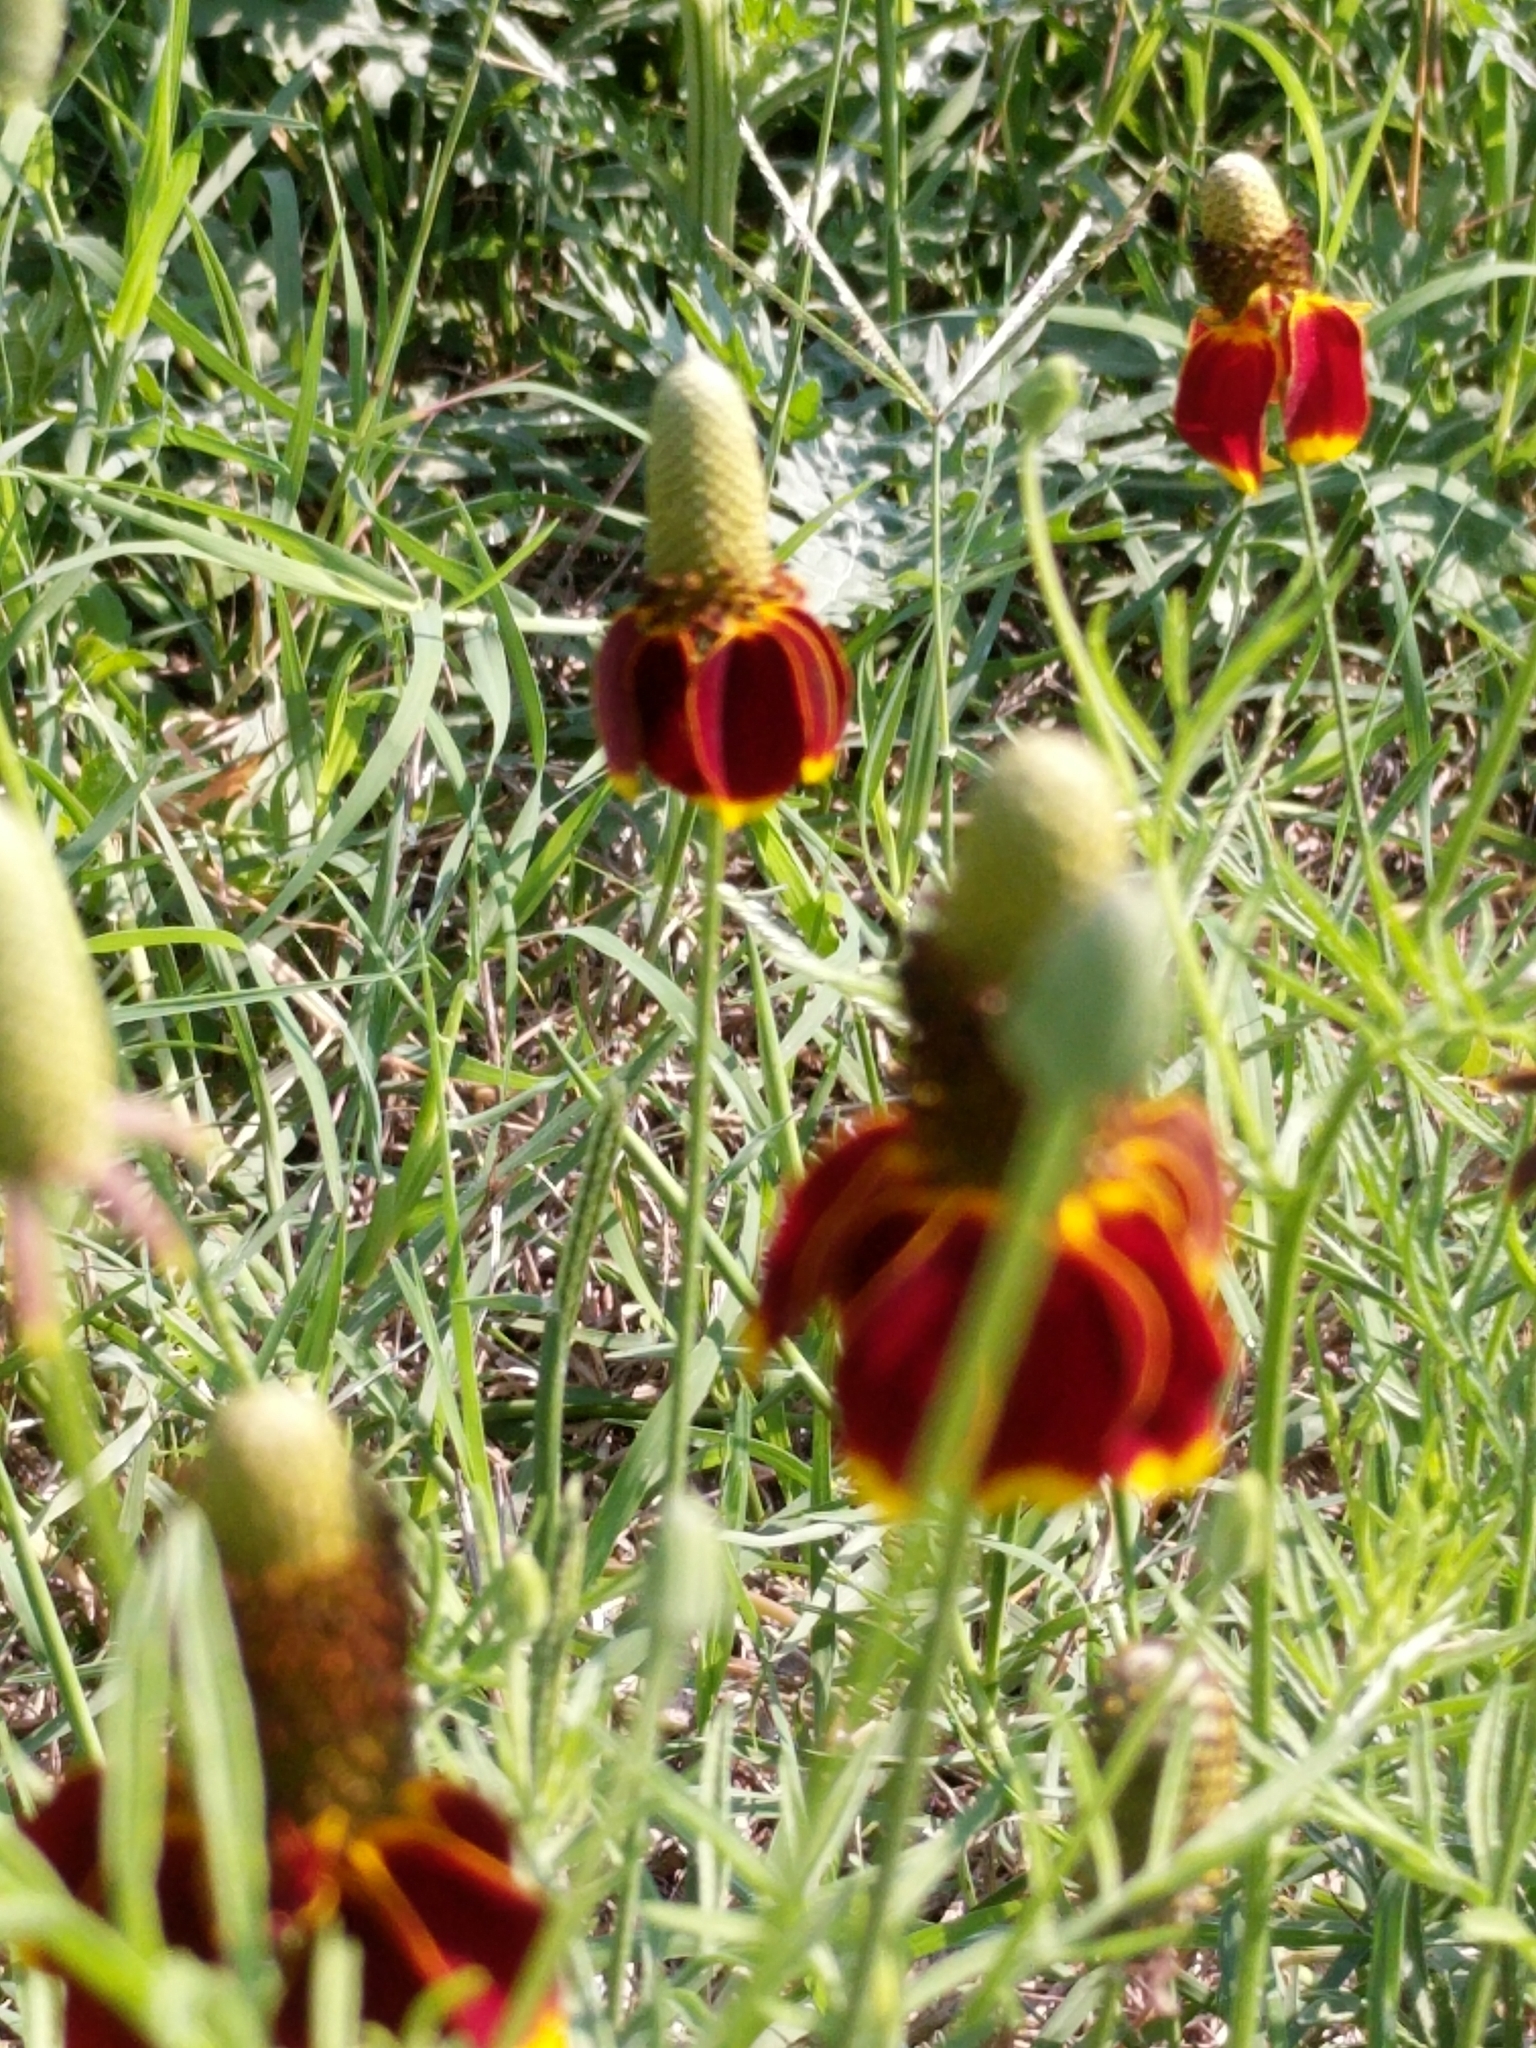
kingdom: Plantae
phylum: Tracheophyta
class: Magnoliopsida
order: Asterales
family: Asteraceae
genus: Ratibida
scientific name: Ratibida columnifera
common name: Prairie coneflower
